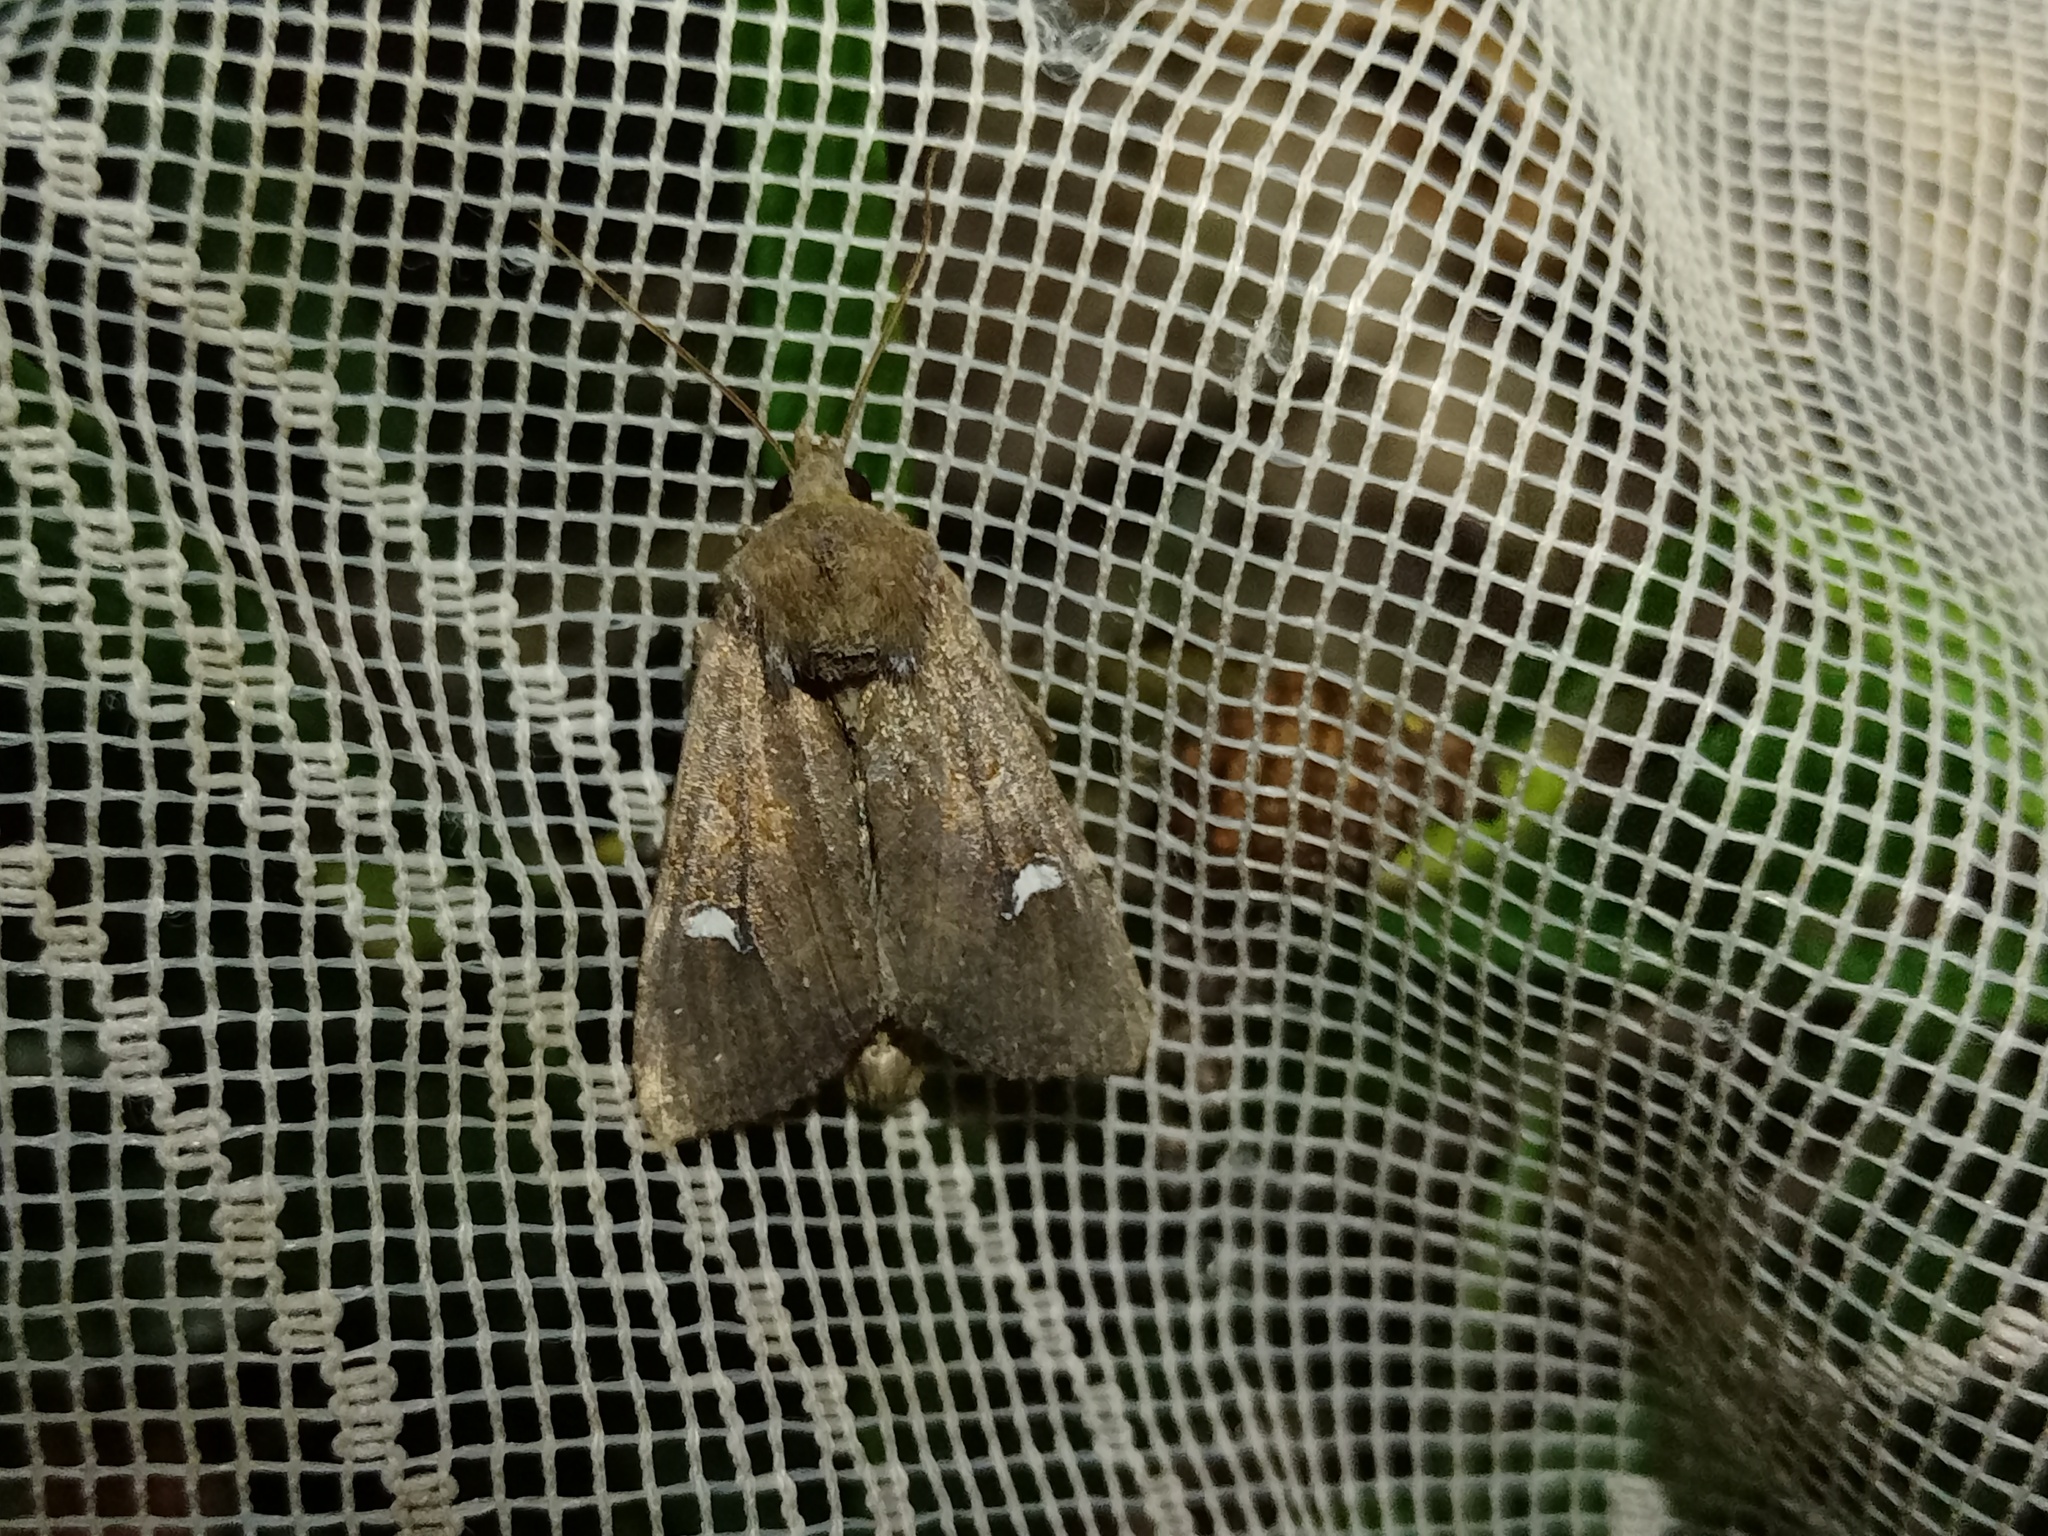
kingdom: Animalia
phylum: Arthropoda
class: Insecta
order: Lepidoptera
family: Noctuidae
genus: Helotropha
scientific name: Helotropha leucostigma
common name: The crescent
